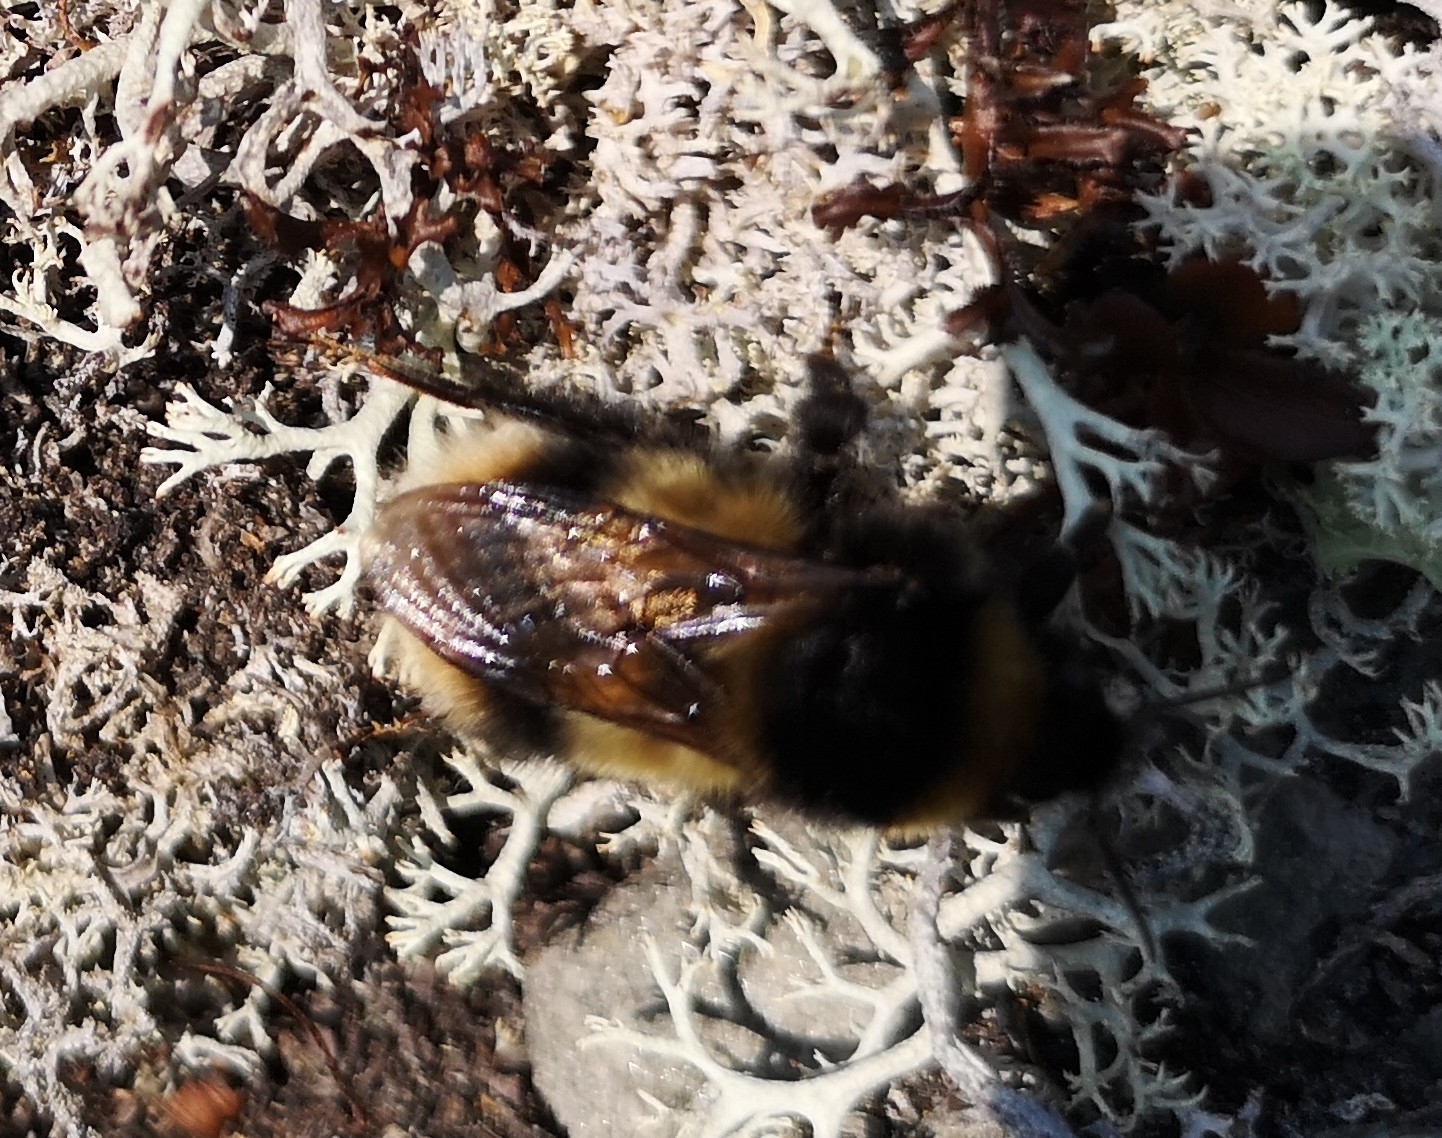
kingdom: Animalia
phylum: Arthropoda
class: Insecta
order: Hymenoptera
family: Apidae
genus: Bombus
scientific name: Bombus balteatus
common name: High country bumble bee
